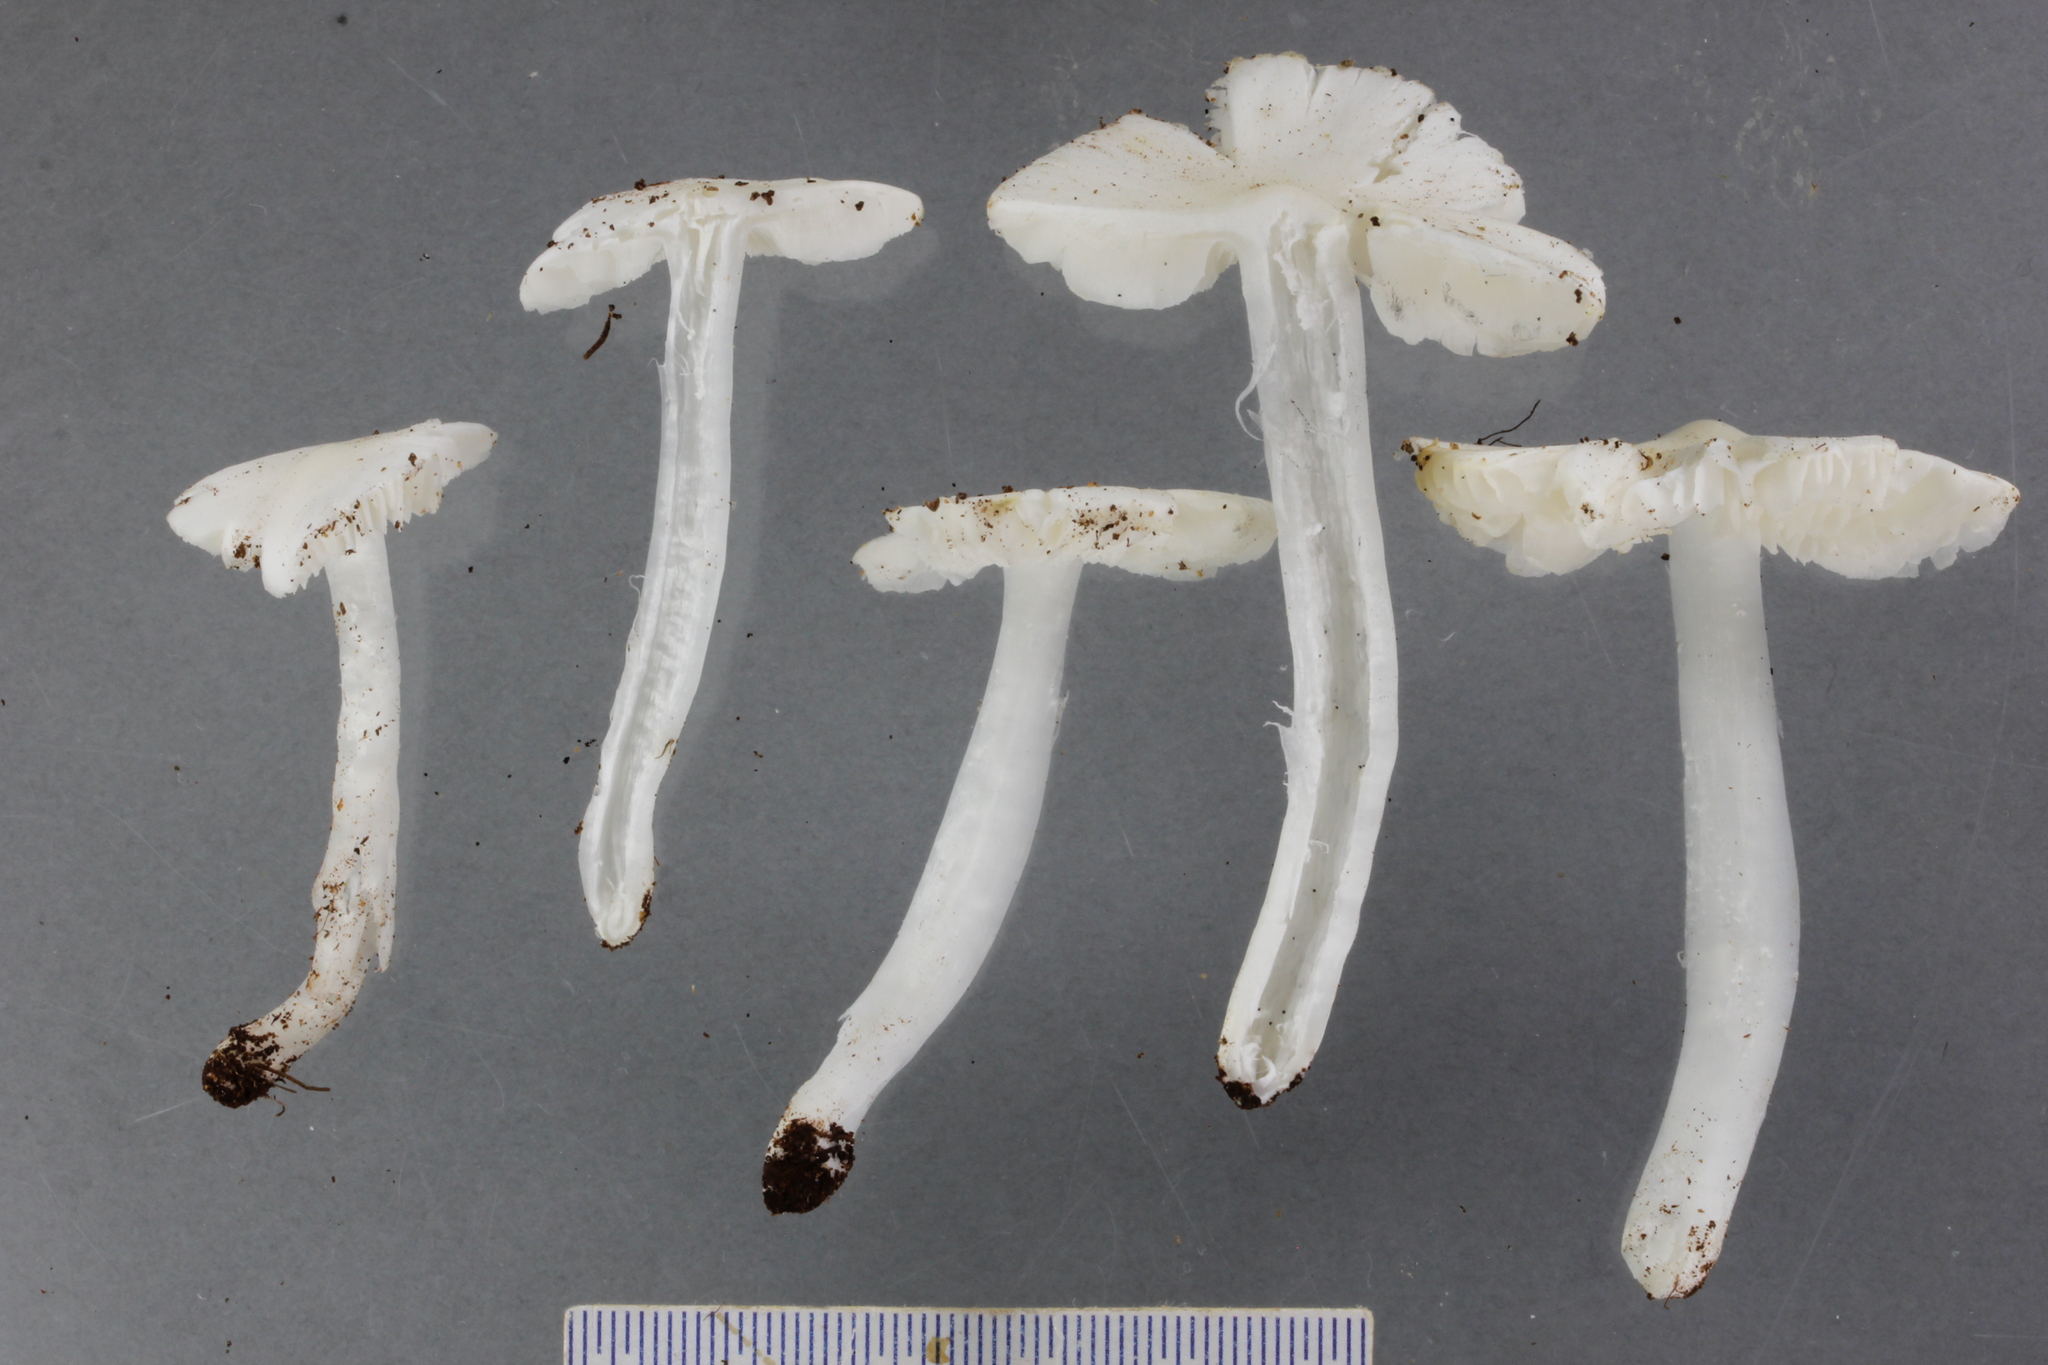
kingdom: Fungi
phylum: Basidiomycota
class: Agaricomycetes
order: Agaricales
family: Hygrophoraceae
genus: Humidicutis
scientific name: Humidicutis mavis
